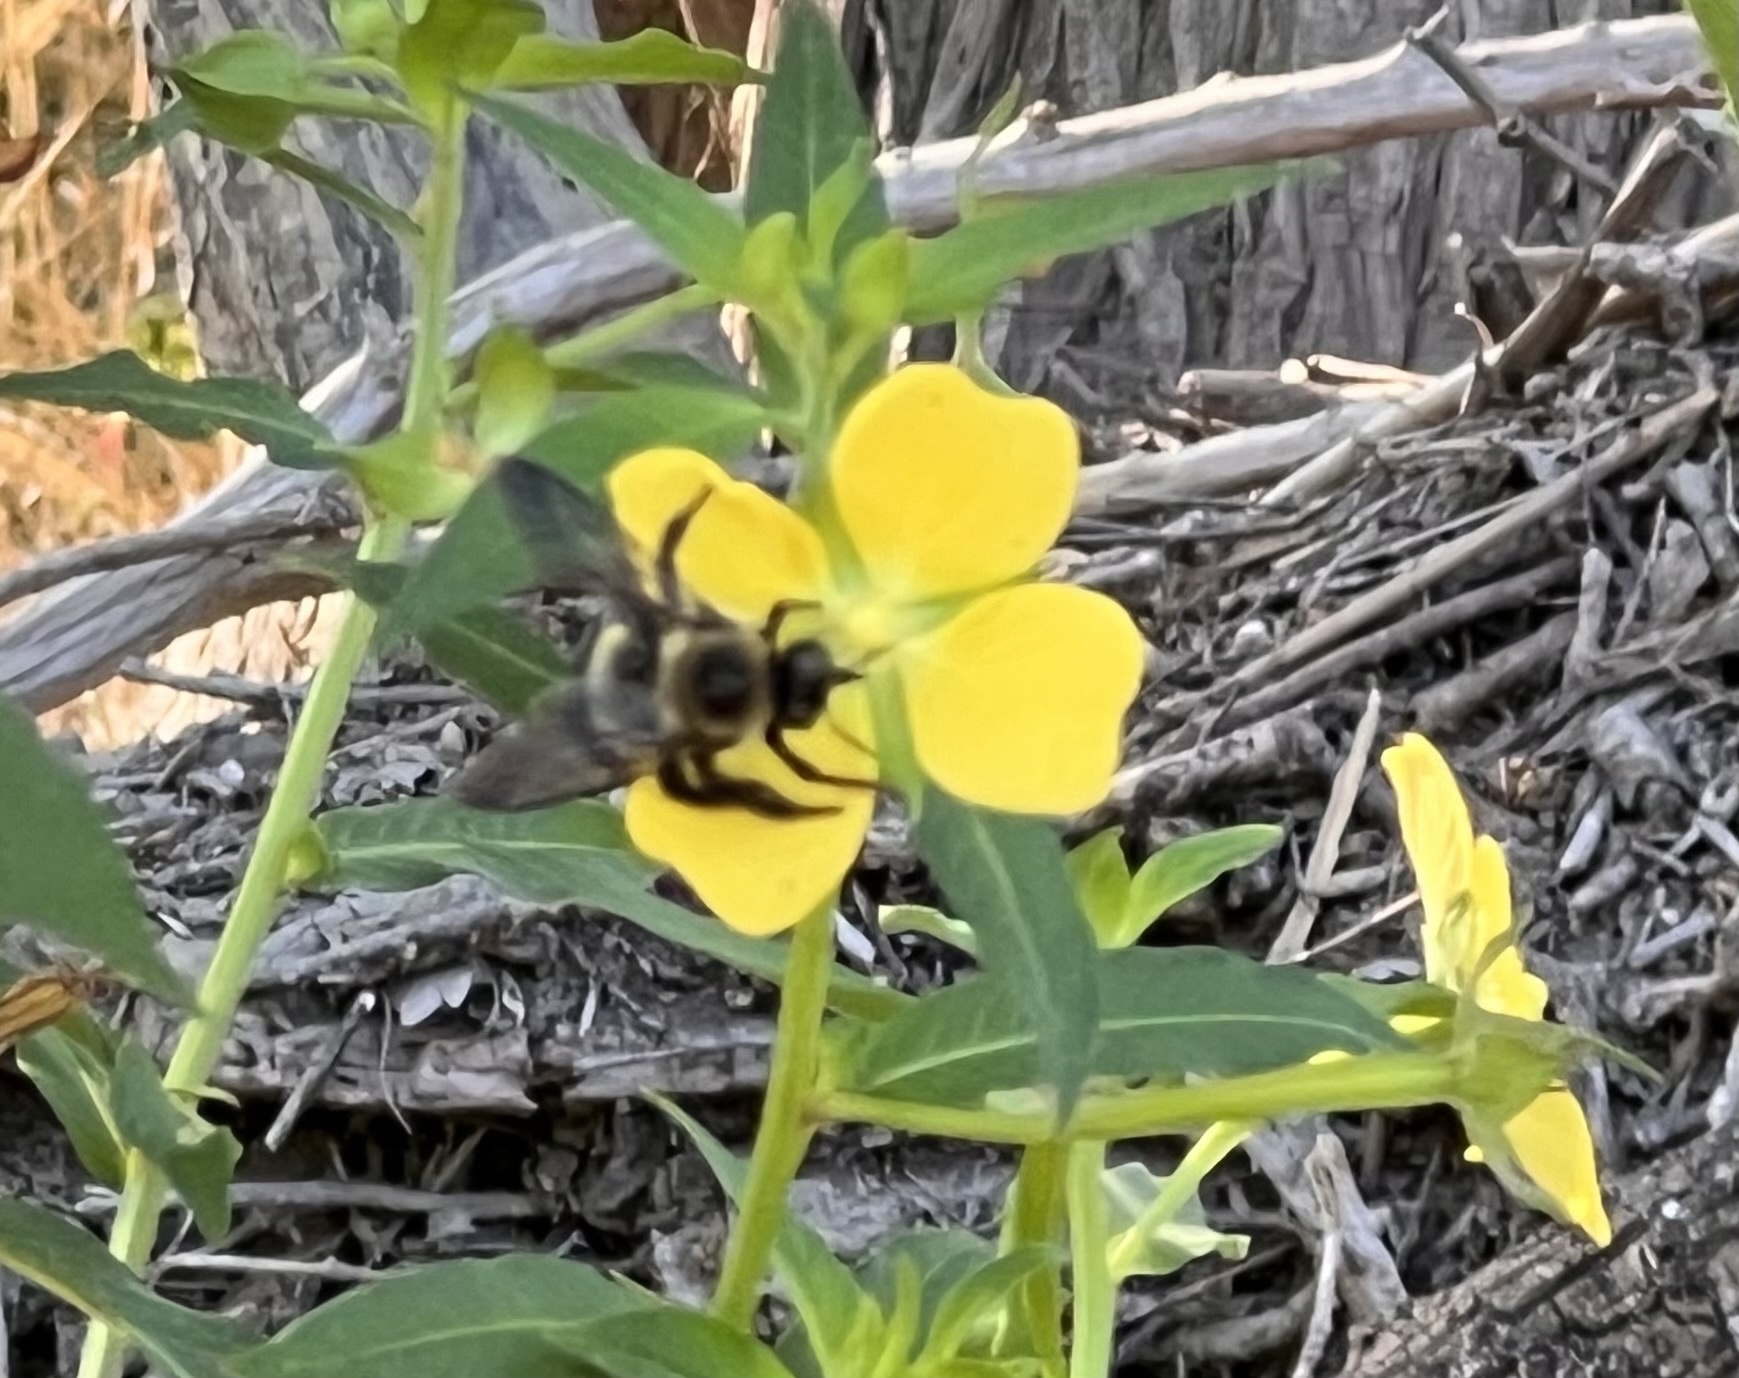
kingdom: Animalia
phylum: Arthropoda
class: Insecta
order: Hymenoptera
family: Apidae
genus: Xylocopa
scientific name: Xylocopa virginica
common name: Carpenter bee
